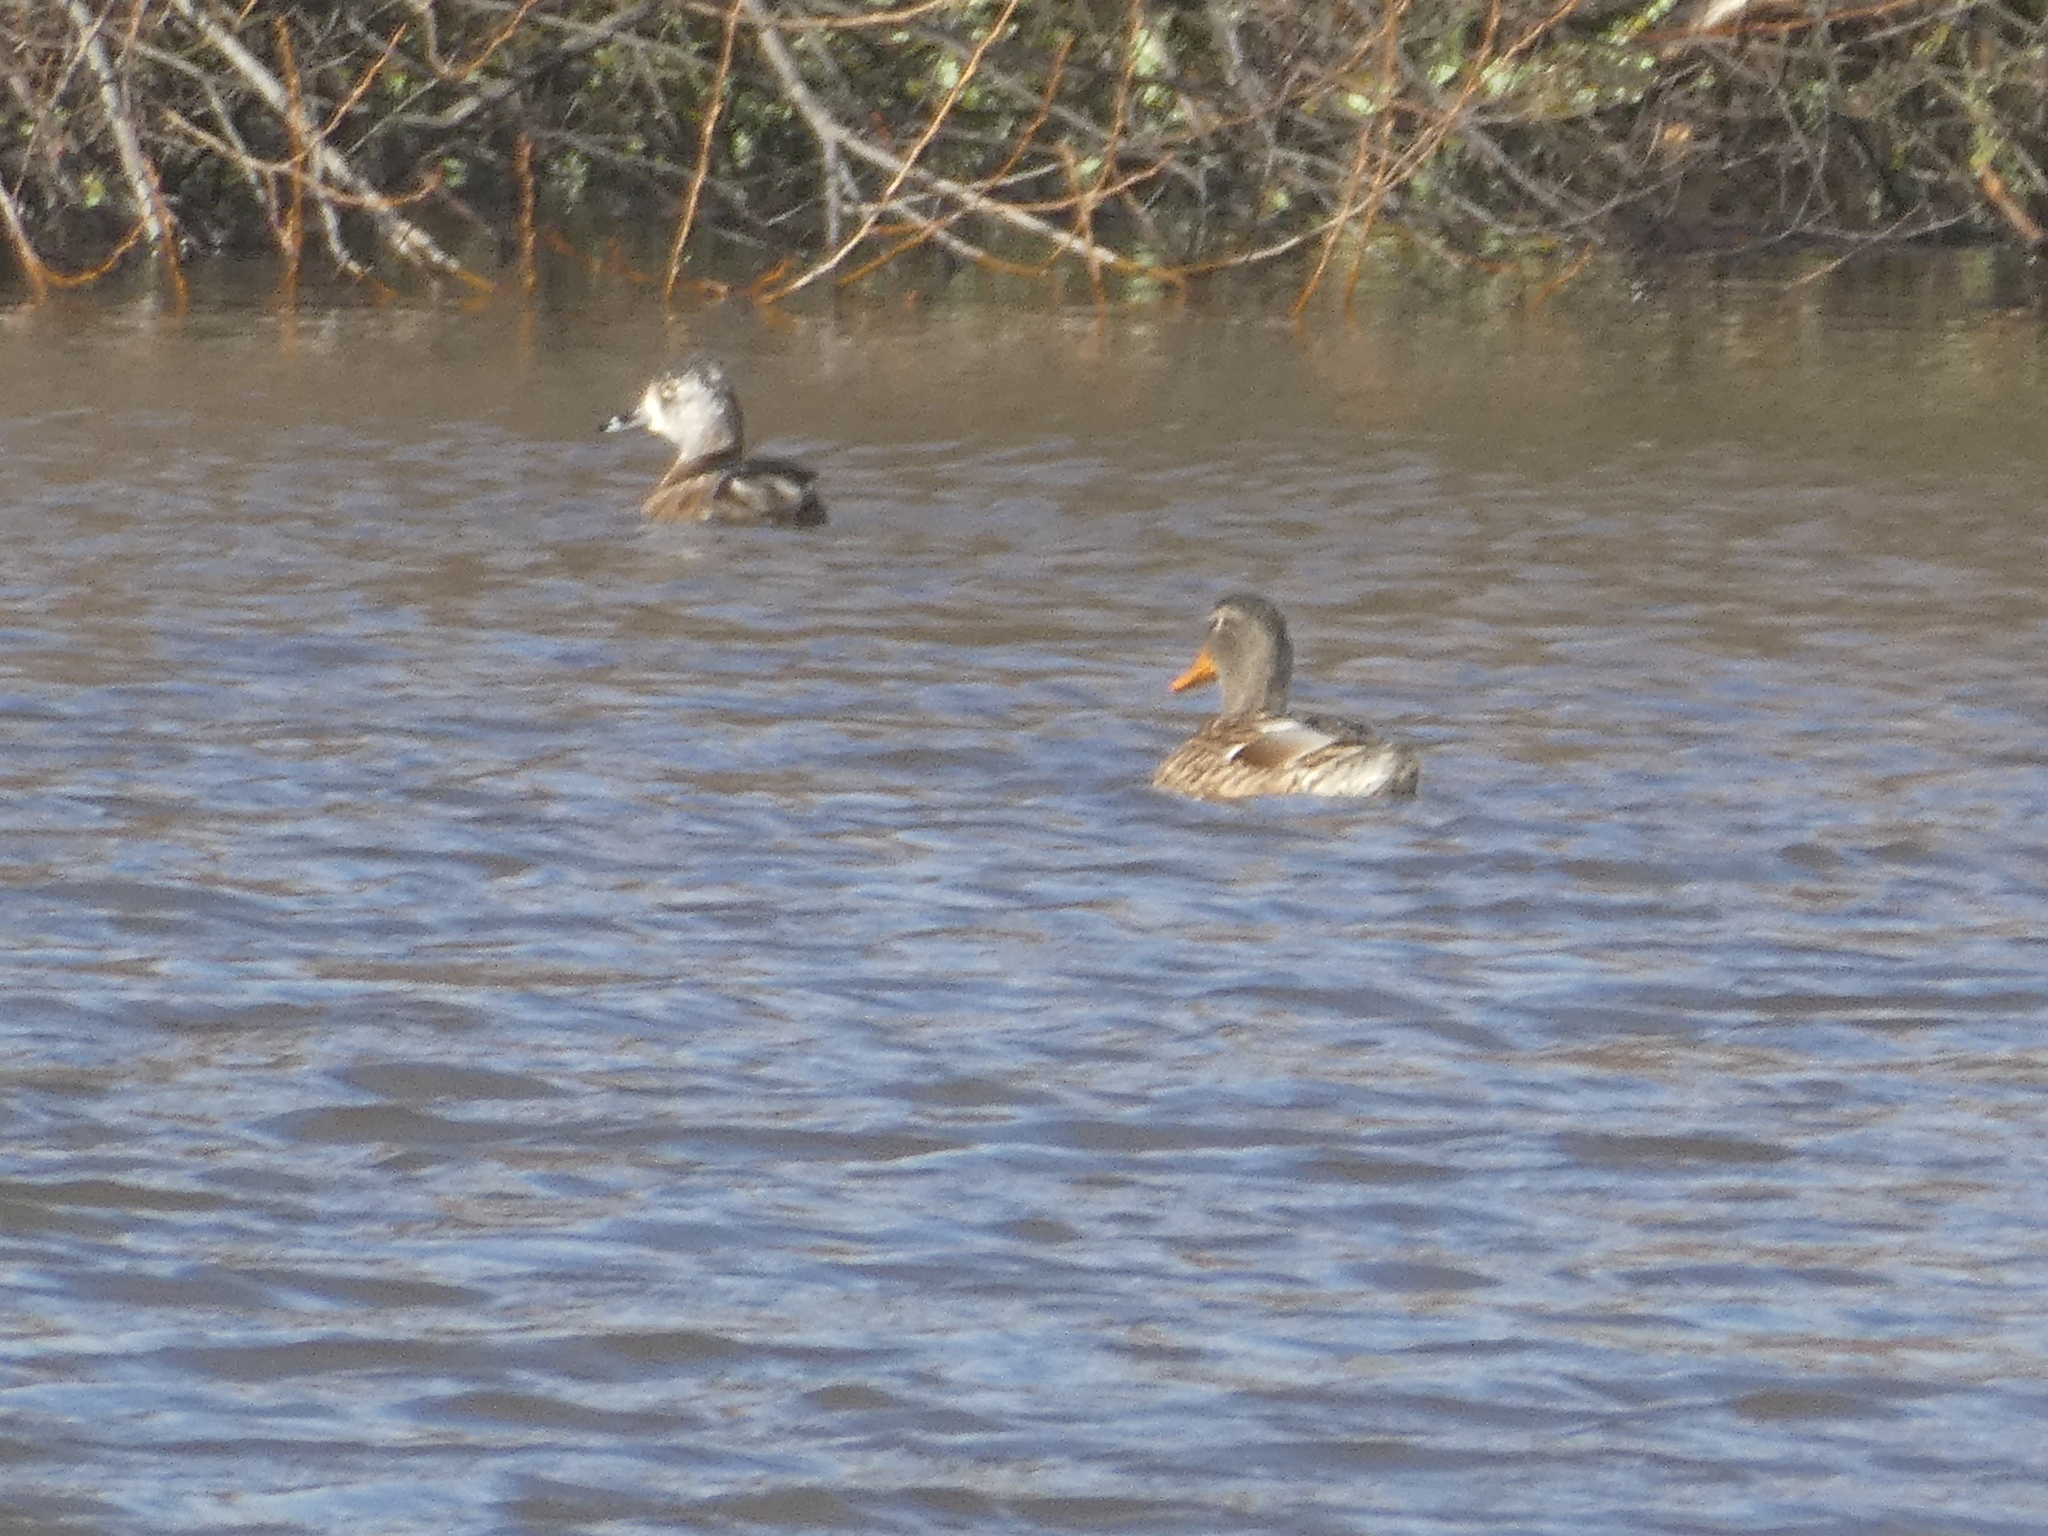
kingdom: Animalia
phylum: Chordata
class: Aves
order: Anseriformes
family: Anatidae
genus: Aythya
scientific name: Aythya collaris
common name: Ring-necked duck
